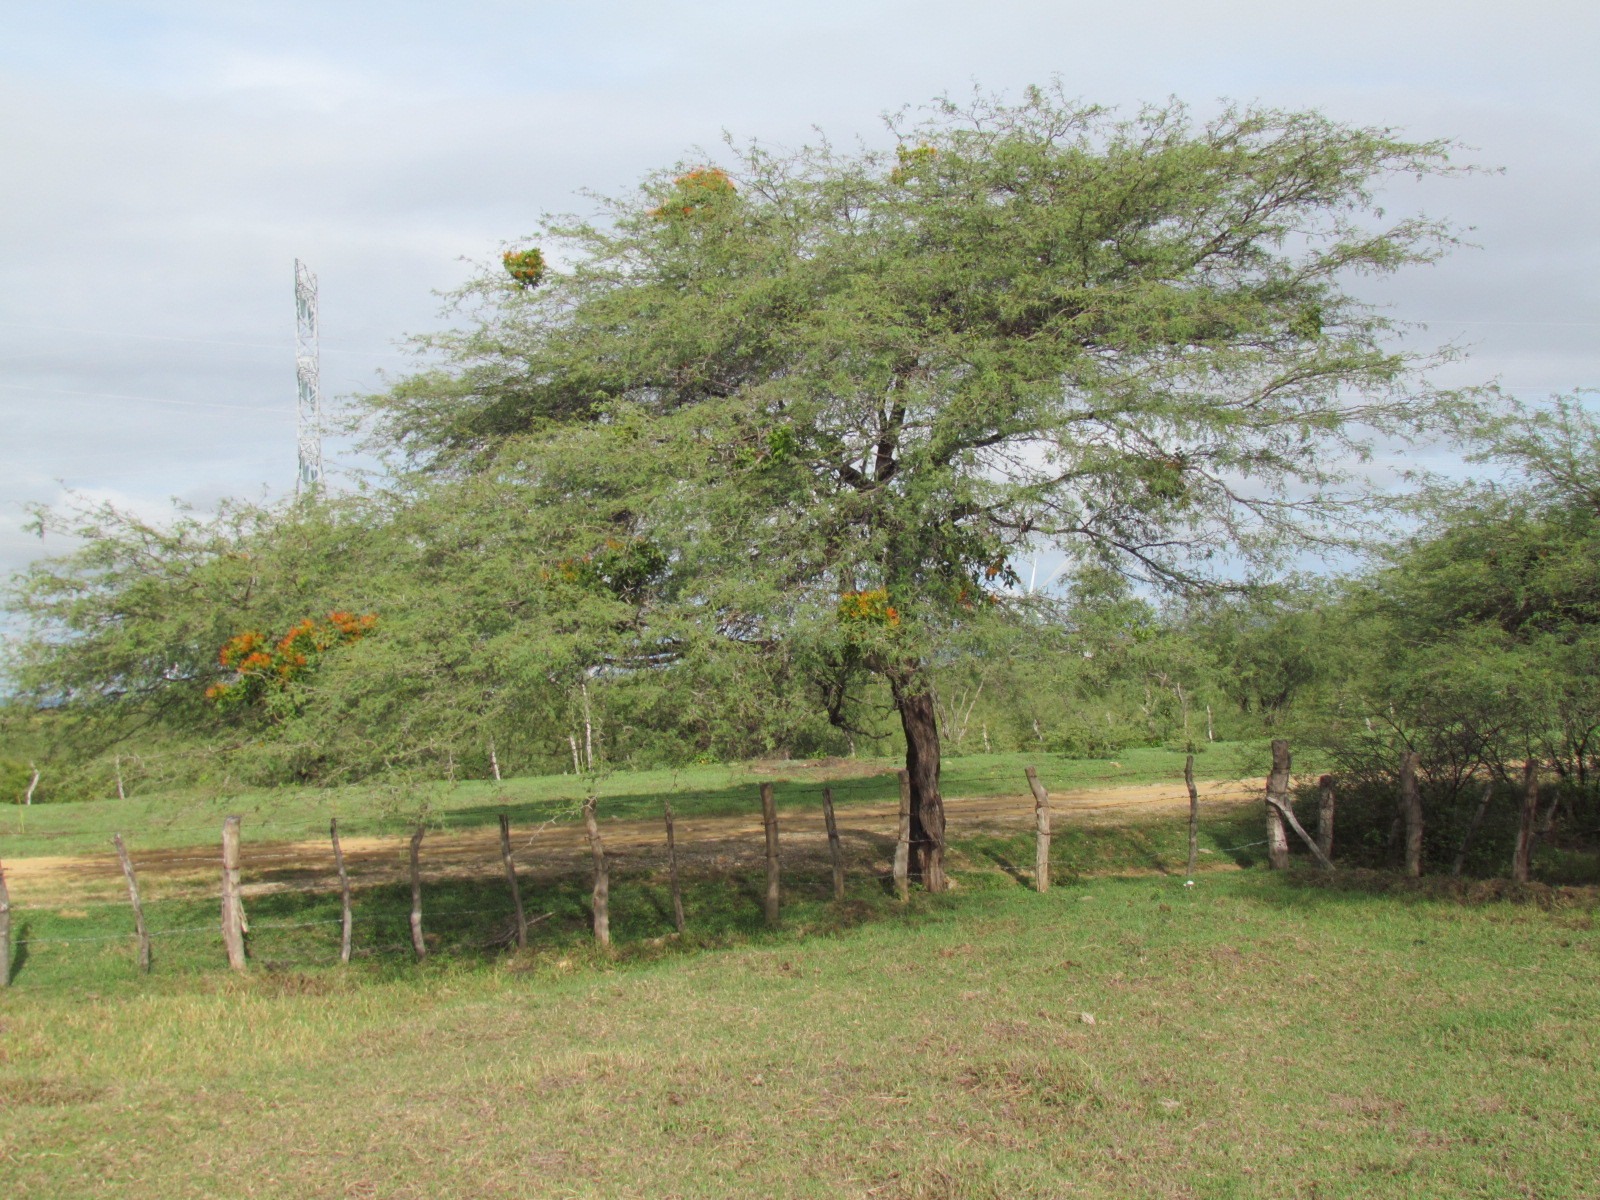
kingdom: Plantae
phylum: Tracheophyta
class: Magnoliopsida
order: Fabales
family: Fabaceae
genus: Prosopis
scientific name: Prosopis laevigata
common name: Smooth mesquite
